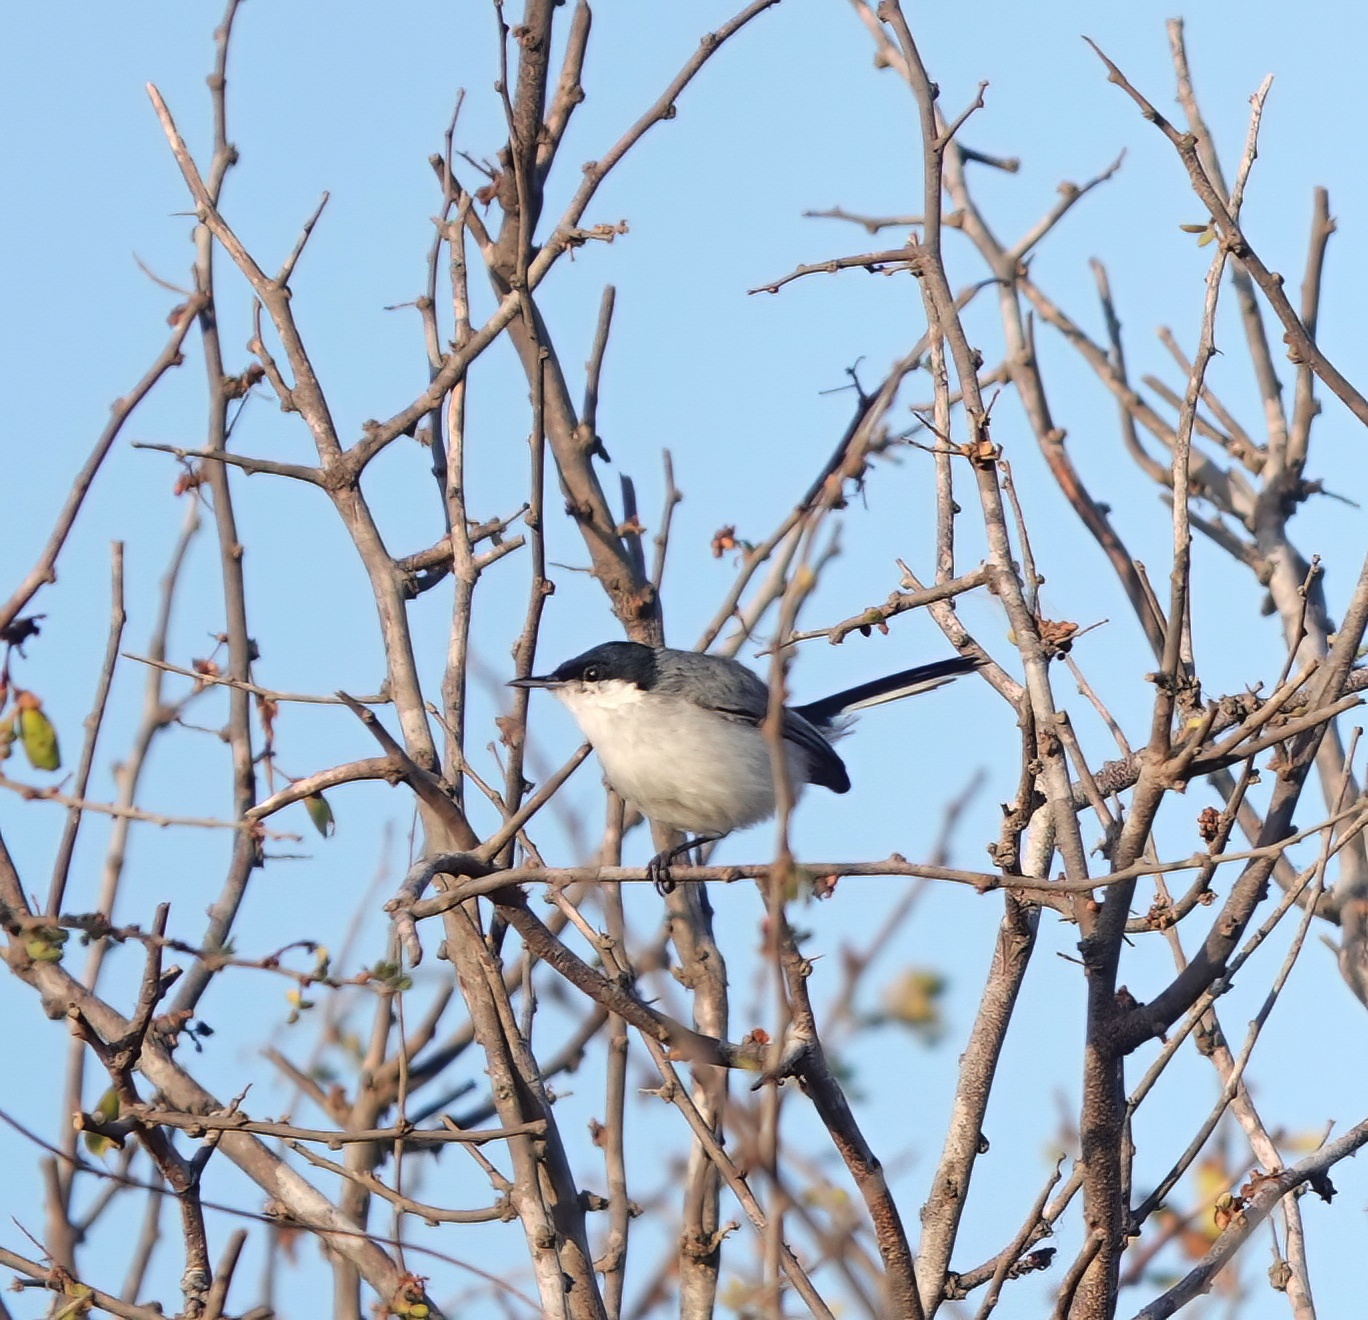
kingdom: Animalia
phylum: Chordata
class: Aves
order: Passeriformes
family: Polioptilidae
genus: Polioptila
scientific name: Polioptila plumbea
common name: Tropical gnatcatcher
